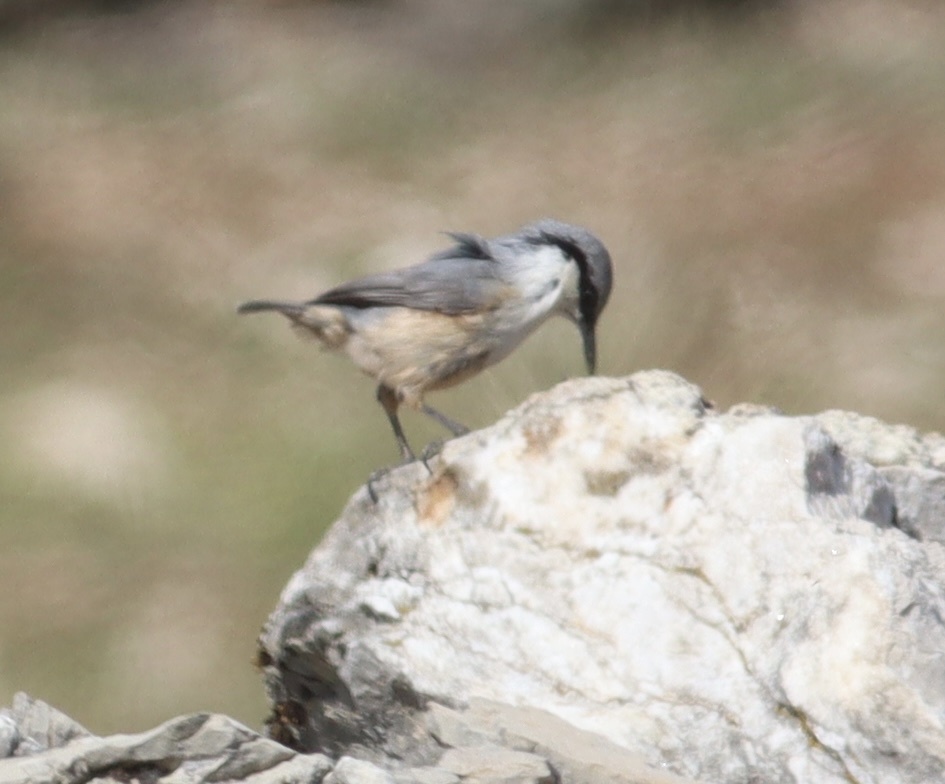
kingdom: Animalia
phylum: Chordata
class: Aves
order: Passeriformes
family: Sittidae
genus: Sitta
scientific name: Sitta neumayer
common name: Western rock nuthatch
